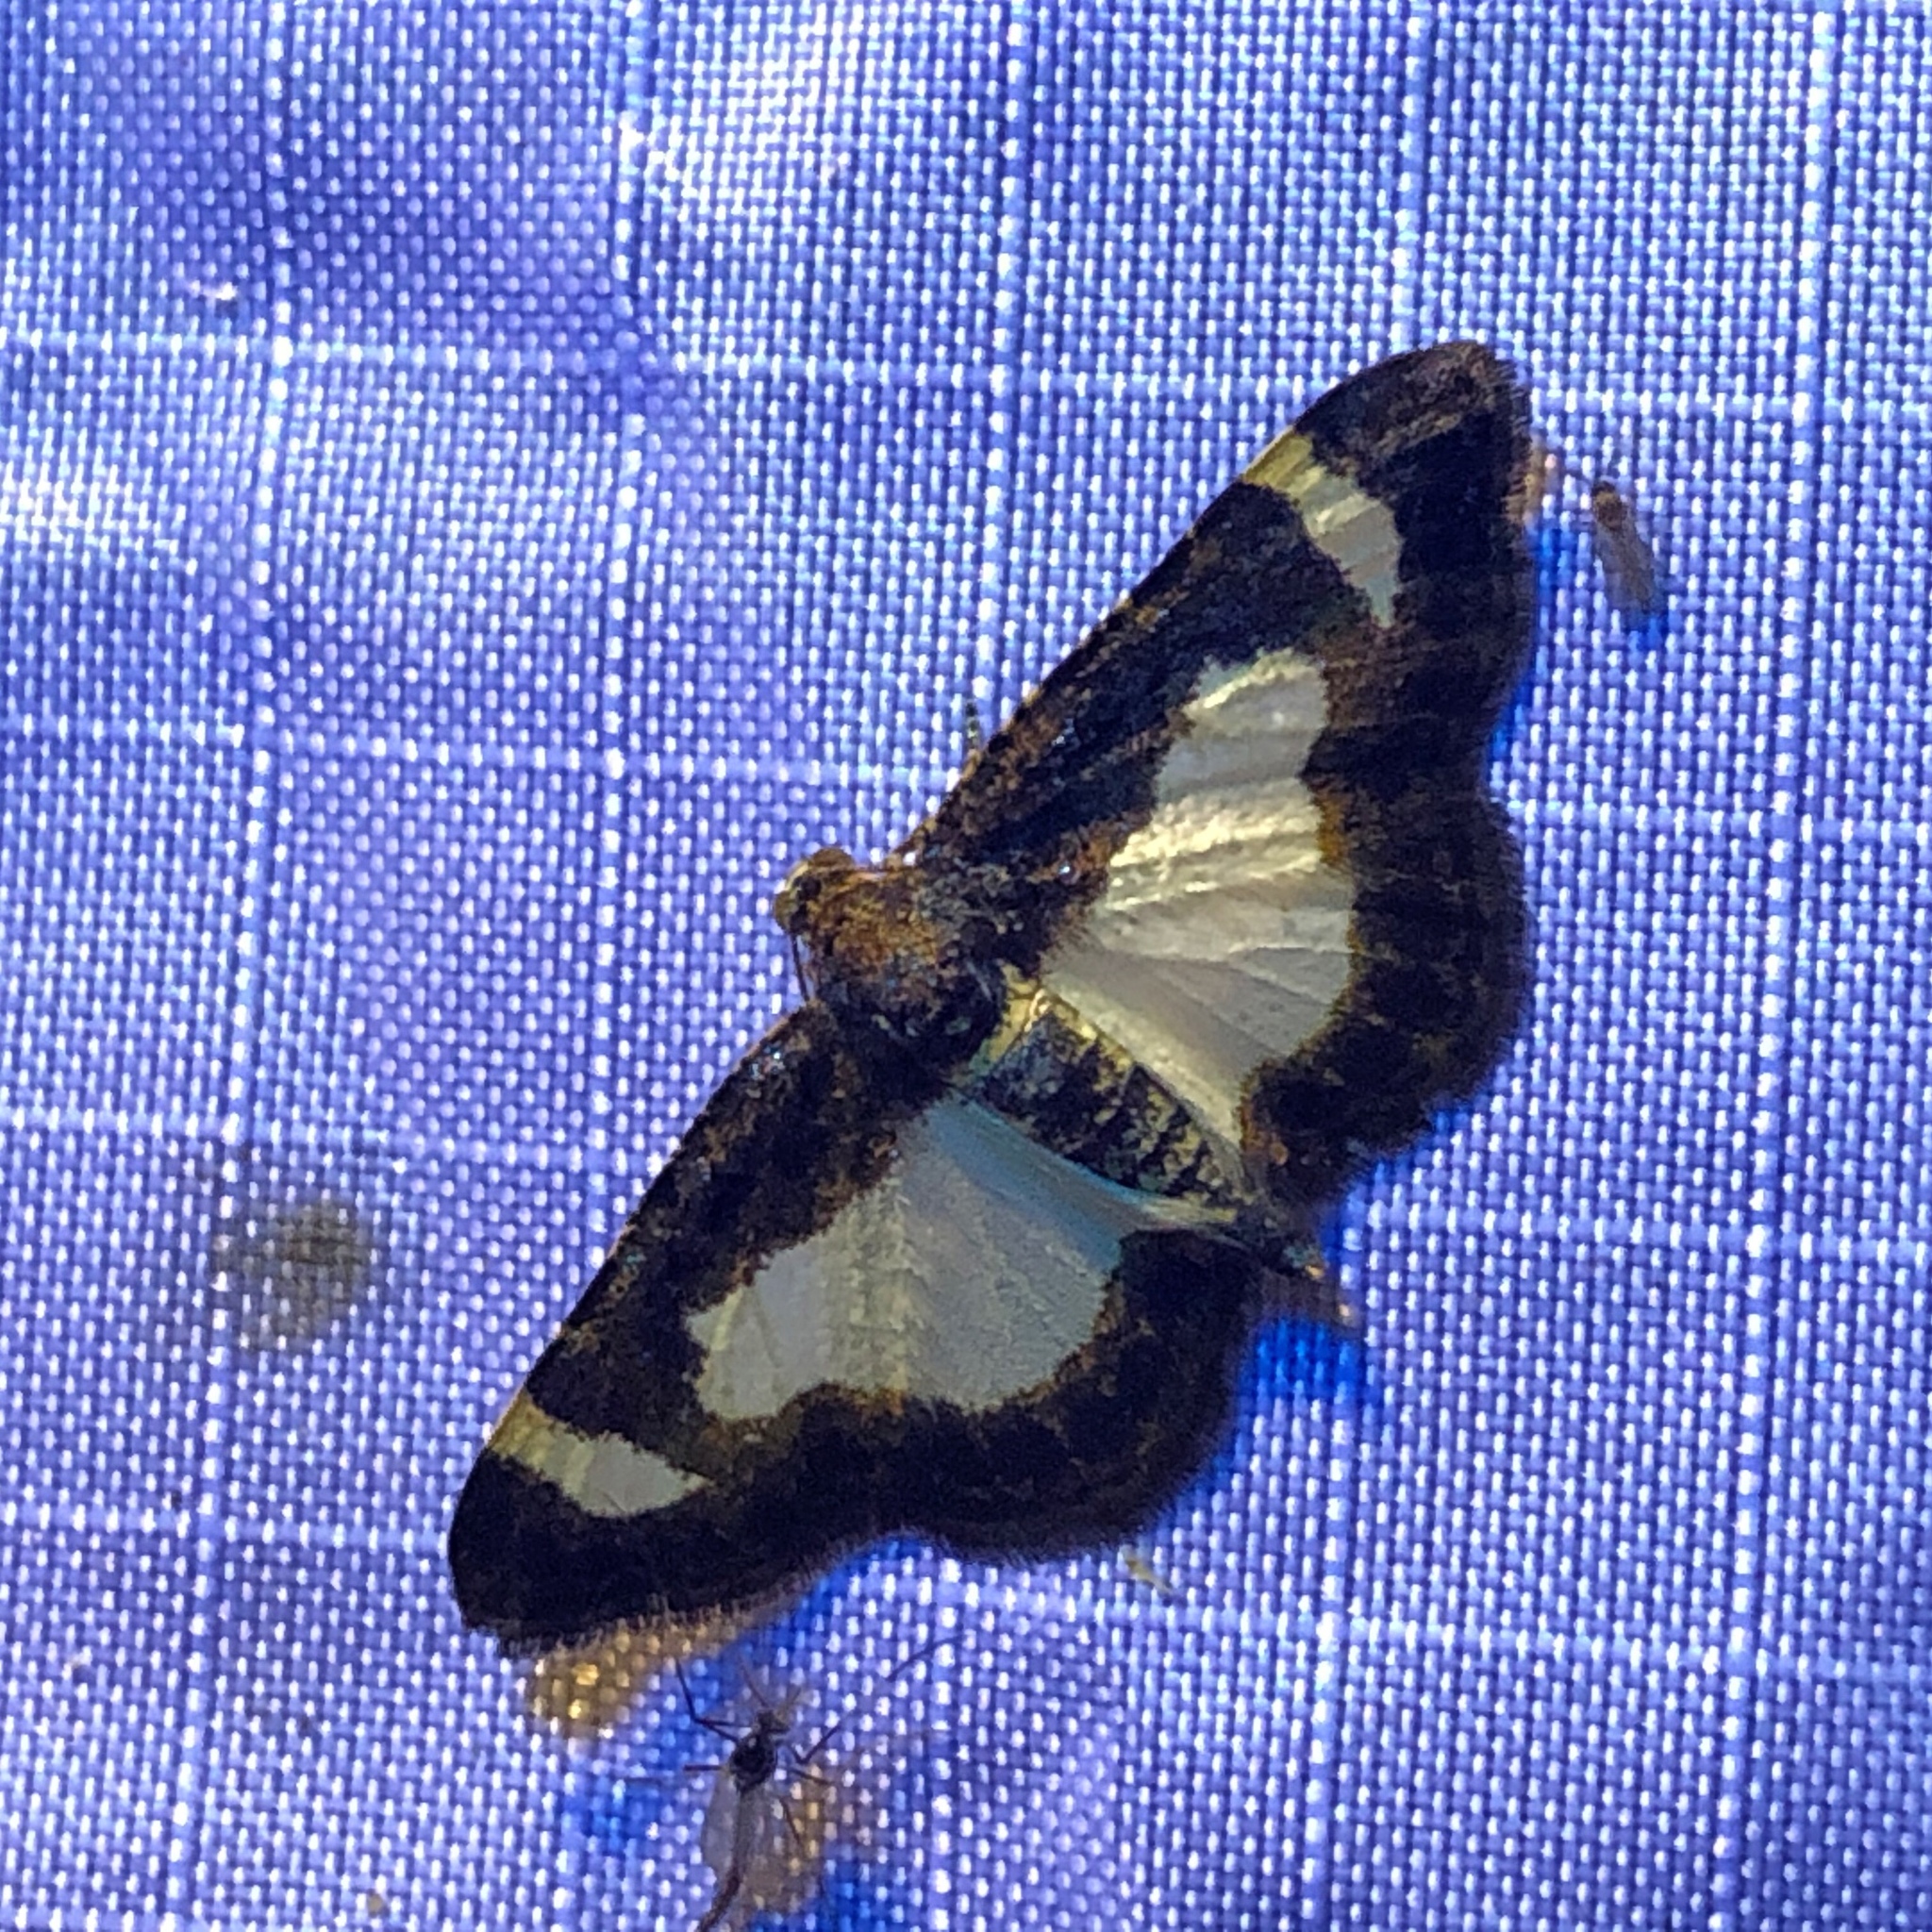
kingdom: Animalia
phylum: Arthropoda
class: Insecta
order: Lepidoptera
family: Geometridae
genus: Heliomata
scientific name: Heliomata cycladata
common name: Common spring moth
